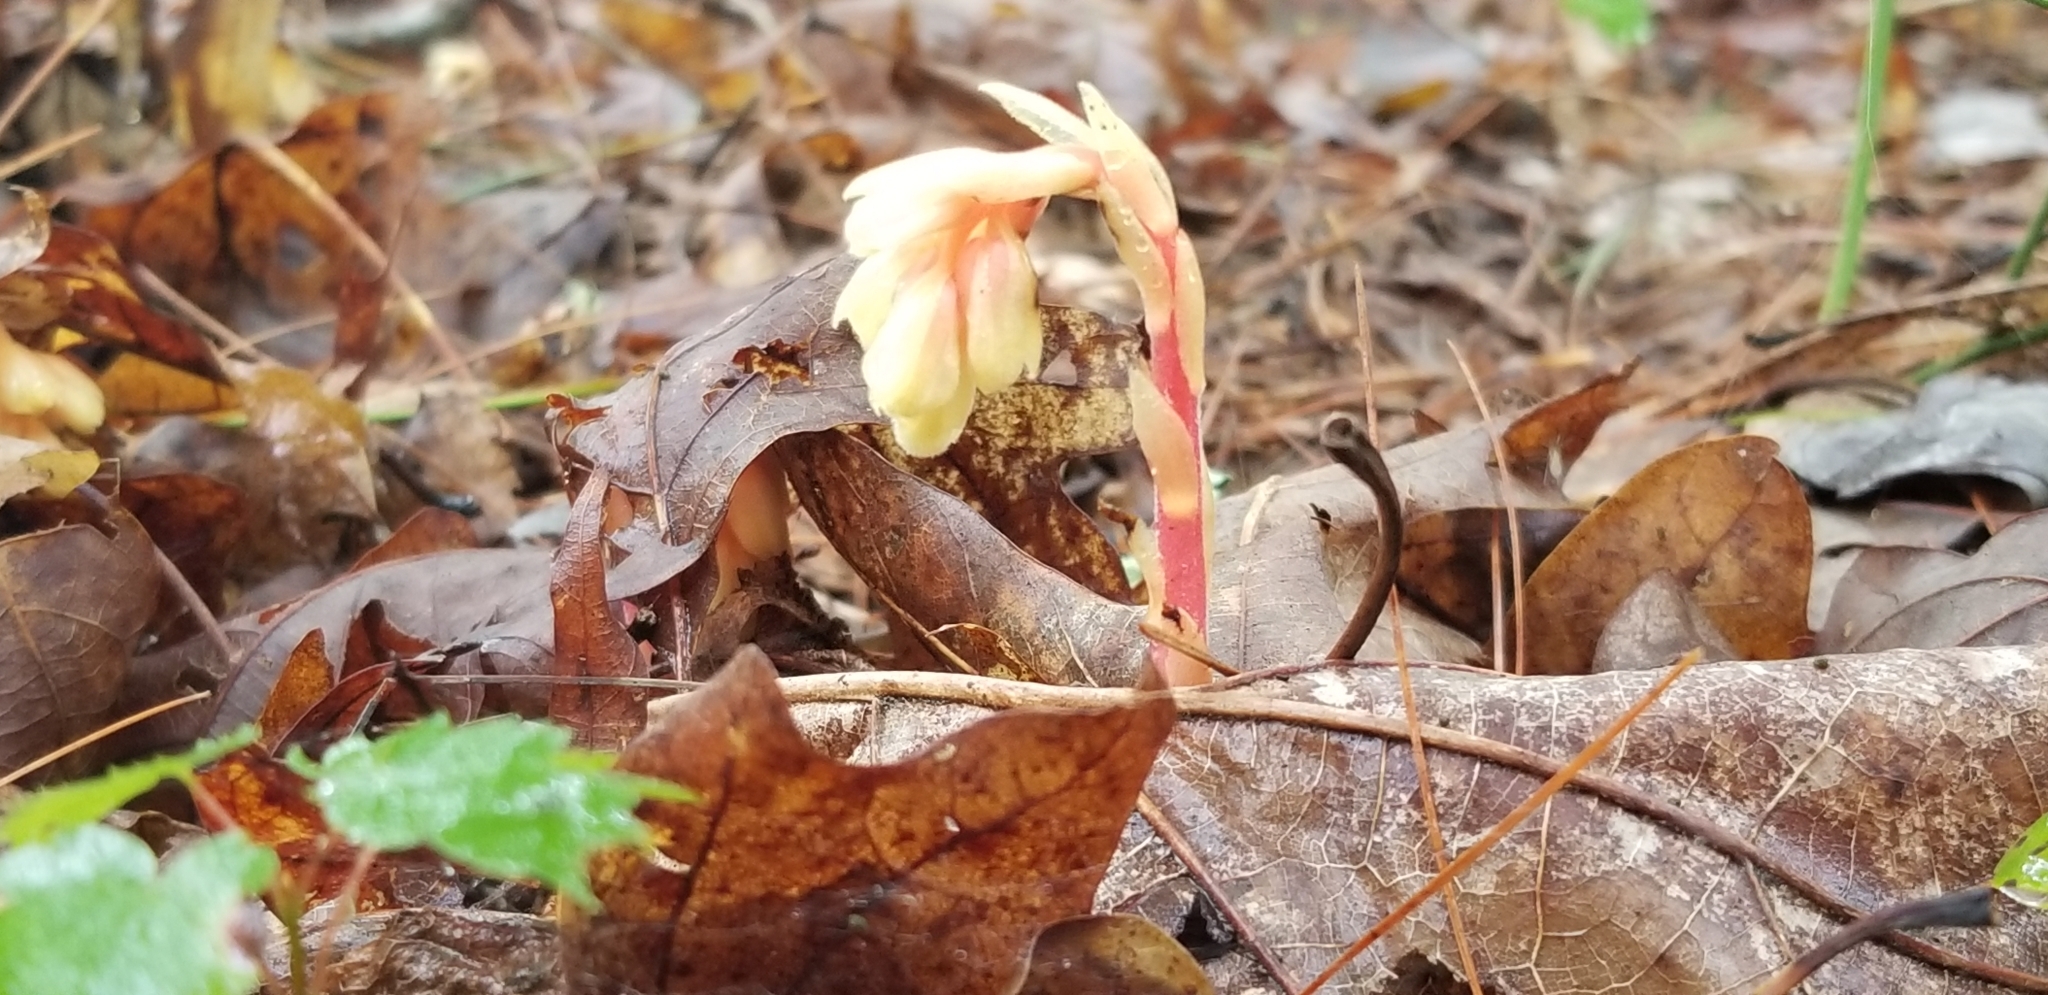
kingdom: Plantae
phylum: Tracheophyta
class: Magnoliopsida
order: Ericales
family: Ericaceae
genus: Hypopitys
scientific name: Hypopitys monotropa
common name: Yellow bird's-nest
